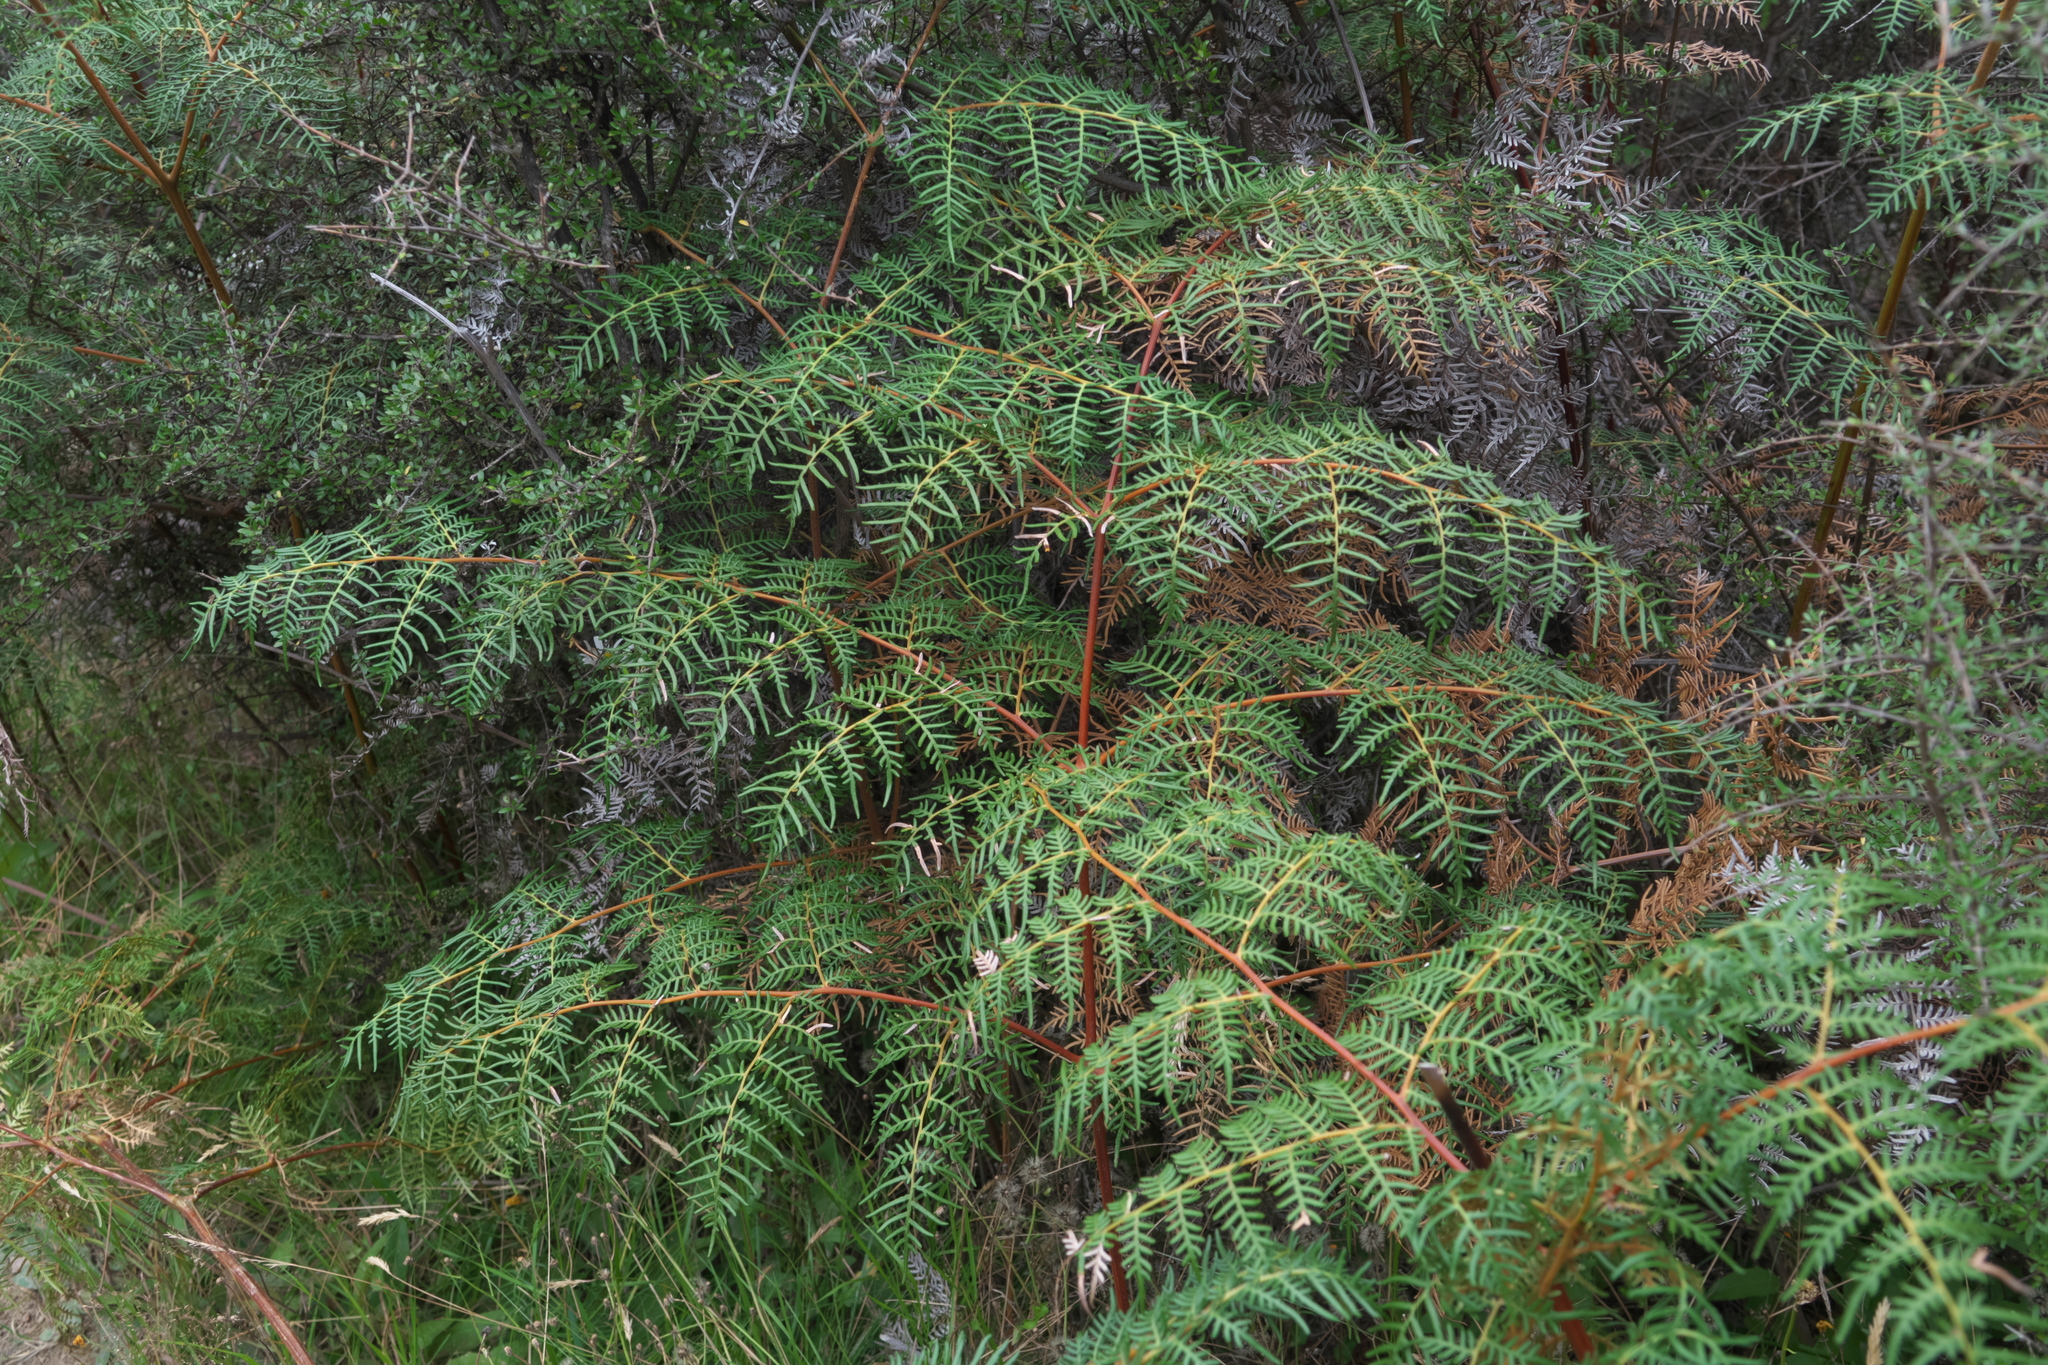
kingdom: Plantae
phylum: Tracheophyta
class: Polypodiopsida
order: Polypodiales
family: Dennstaedtiaceae
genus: Pteridium
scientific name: Pteridium esculentum
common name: Bracken fern
